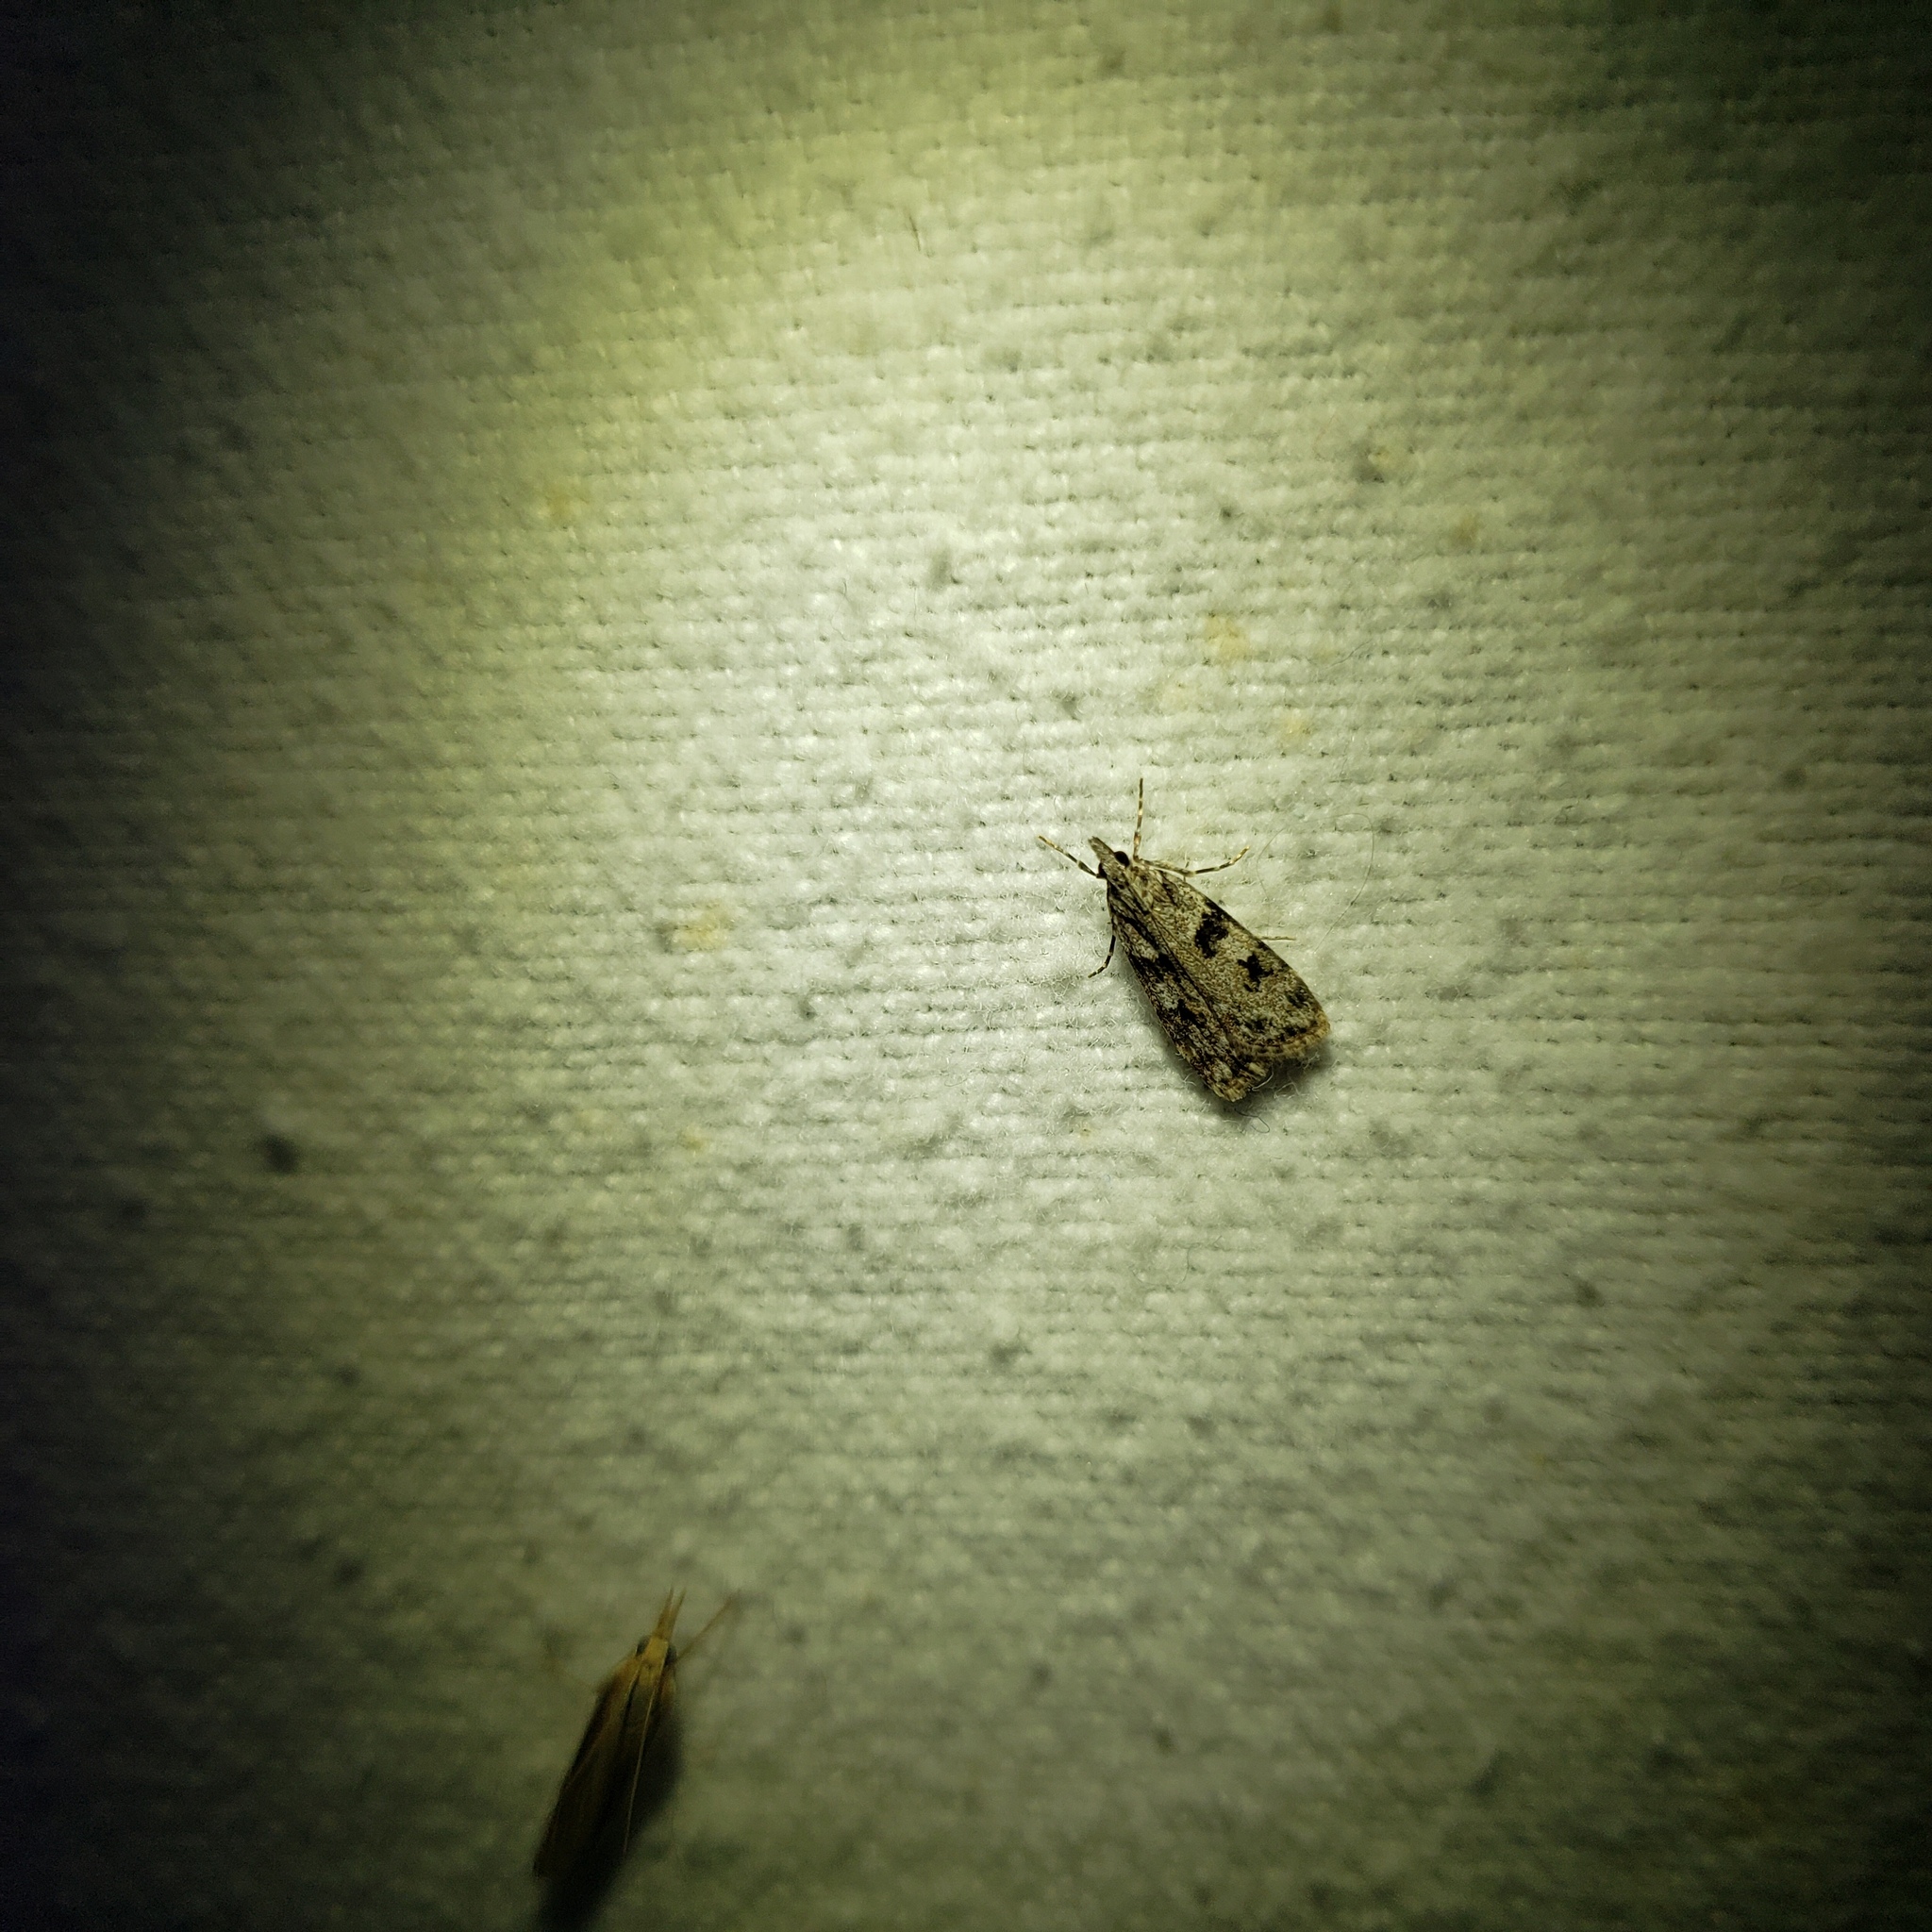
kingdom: Animalia
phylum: Arthropoda
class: Insecta
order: Lepidoptera
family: Crambidae
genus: Scoparia
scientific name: Scoparia biplagialis
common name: Double-striped scoparia moth
